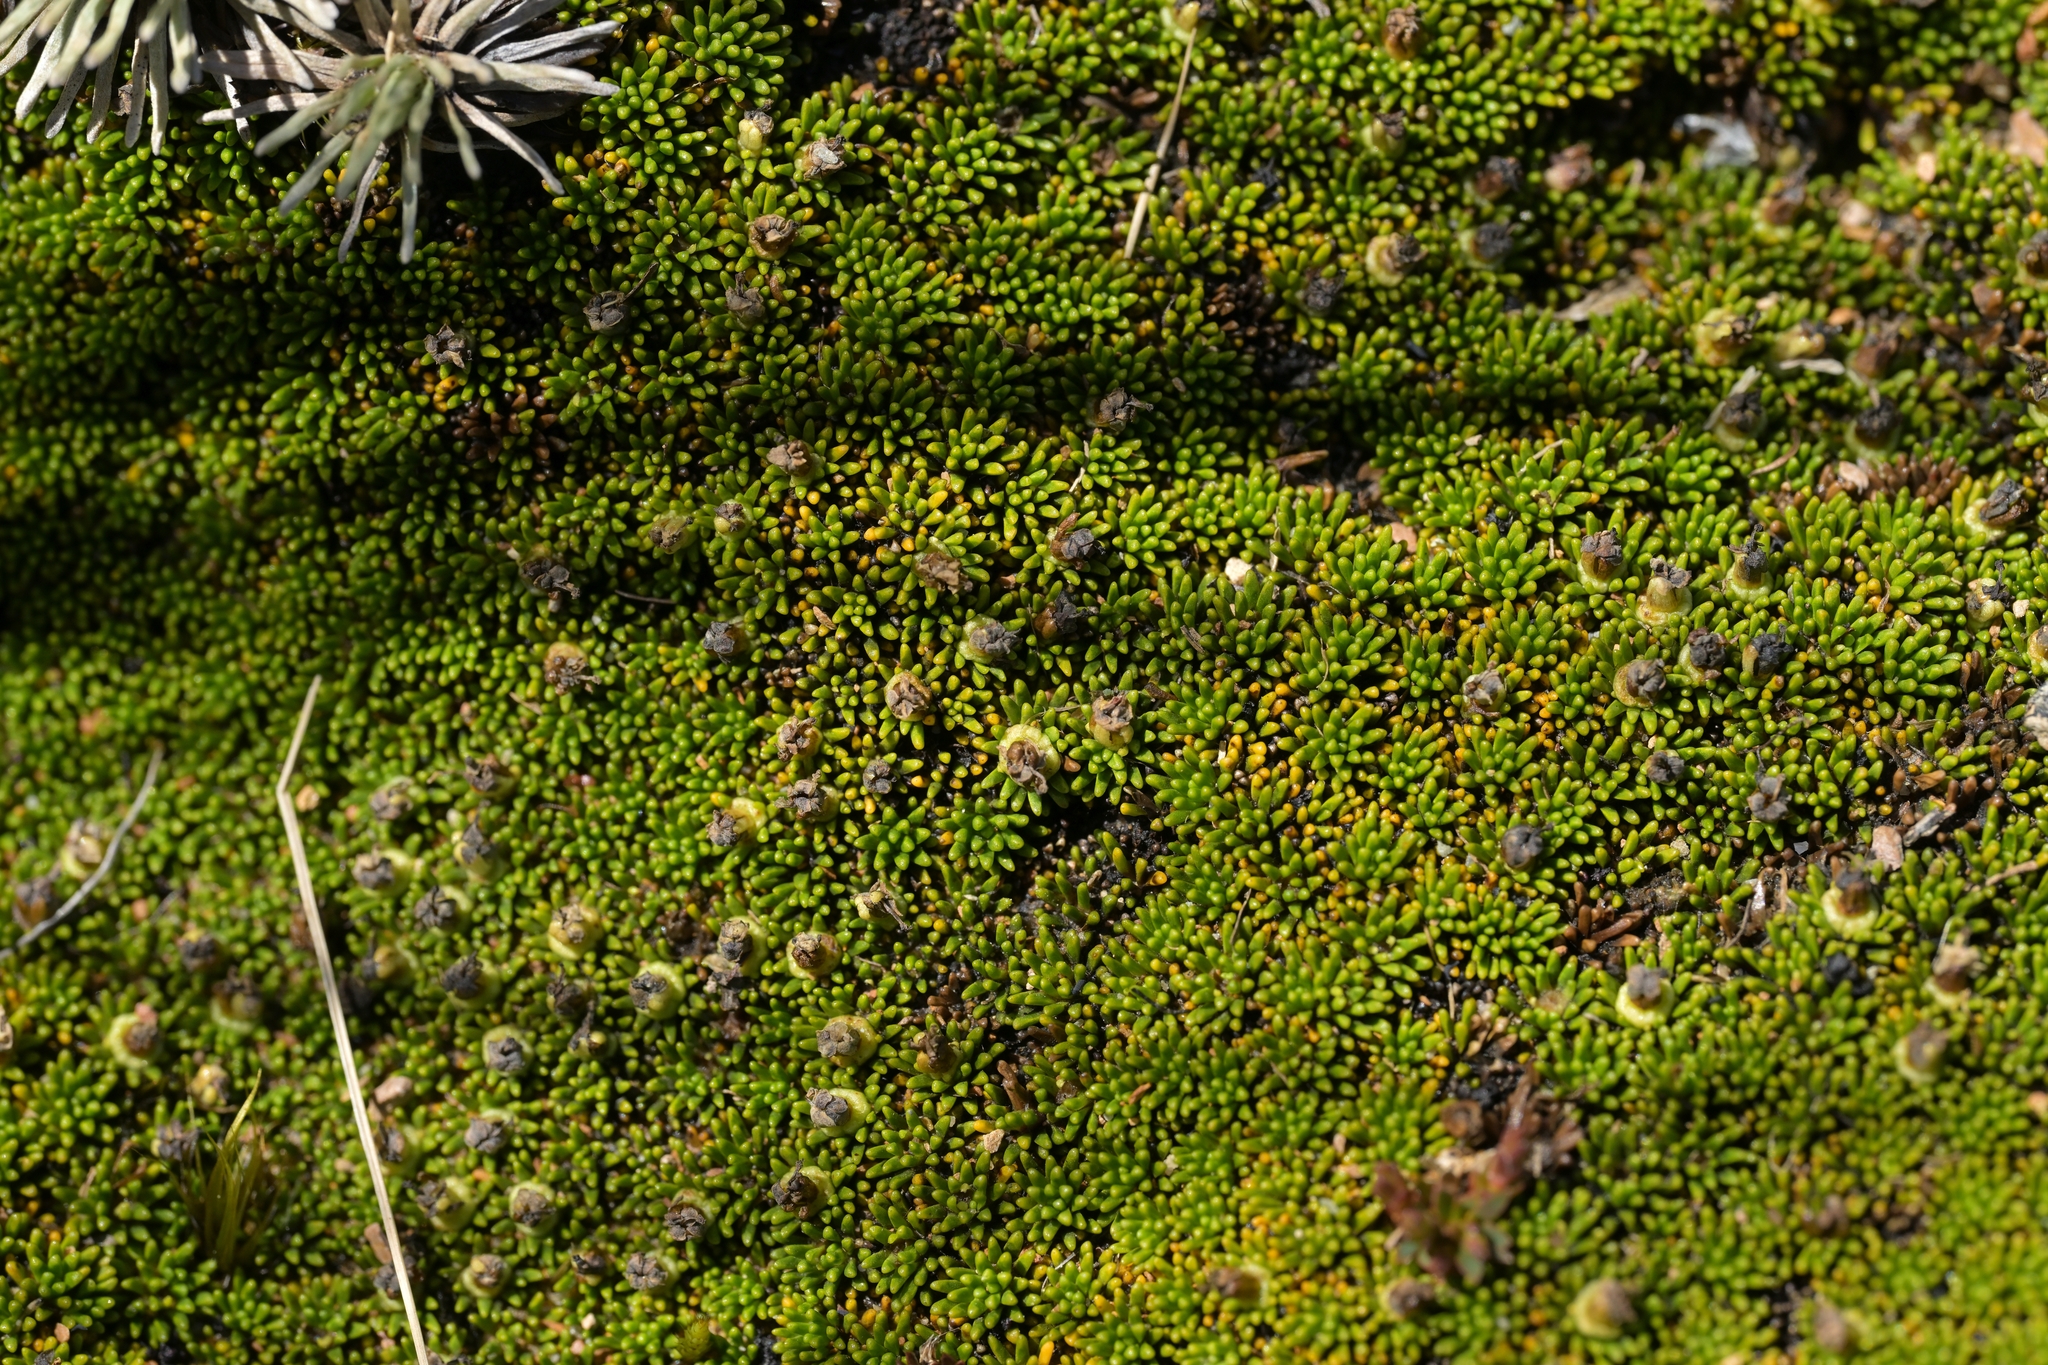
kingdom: Plantae
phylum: Tracheophyta
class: Magnoliopsida
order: Asterales
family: Stylidiaceae
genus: Donatia
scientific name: Donatia novae-zelandiae
